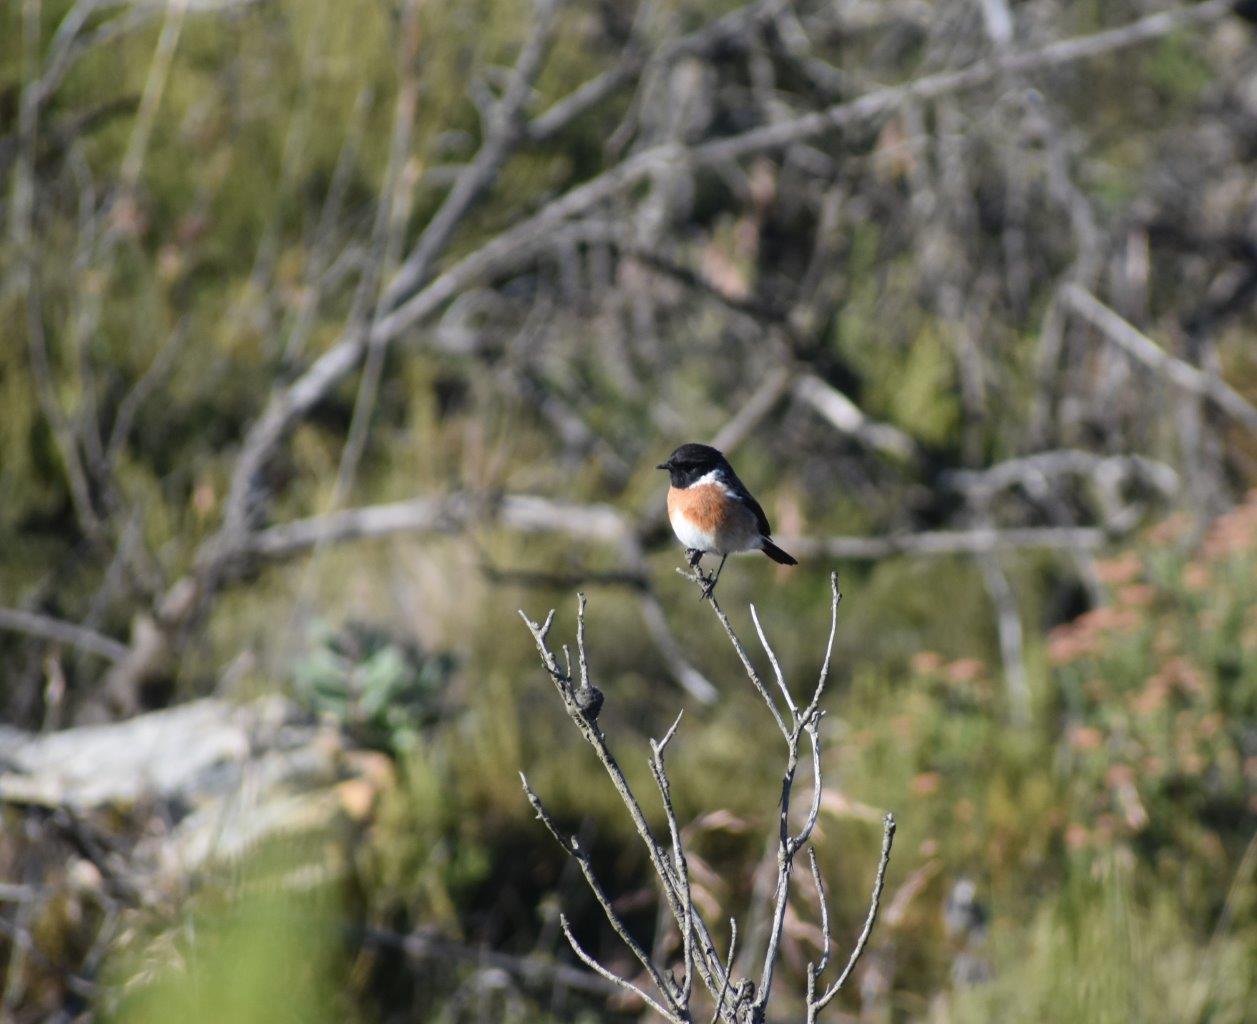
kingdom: Animalia
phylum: Chordata
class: Aves
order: Passeriformes
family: Muscicapidae
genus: Saxicola
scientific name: Saxicola torquatus
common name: African stonechat
